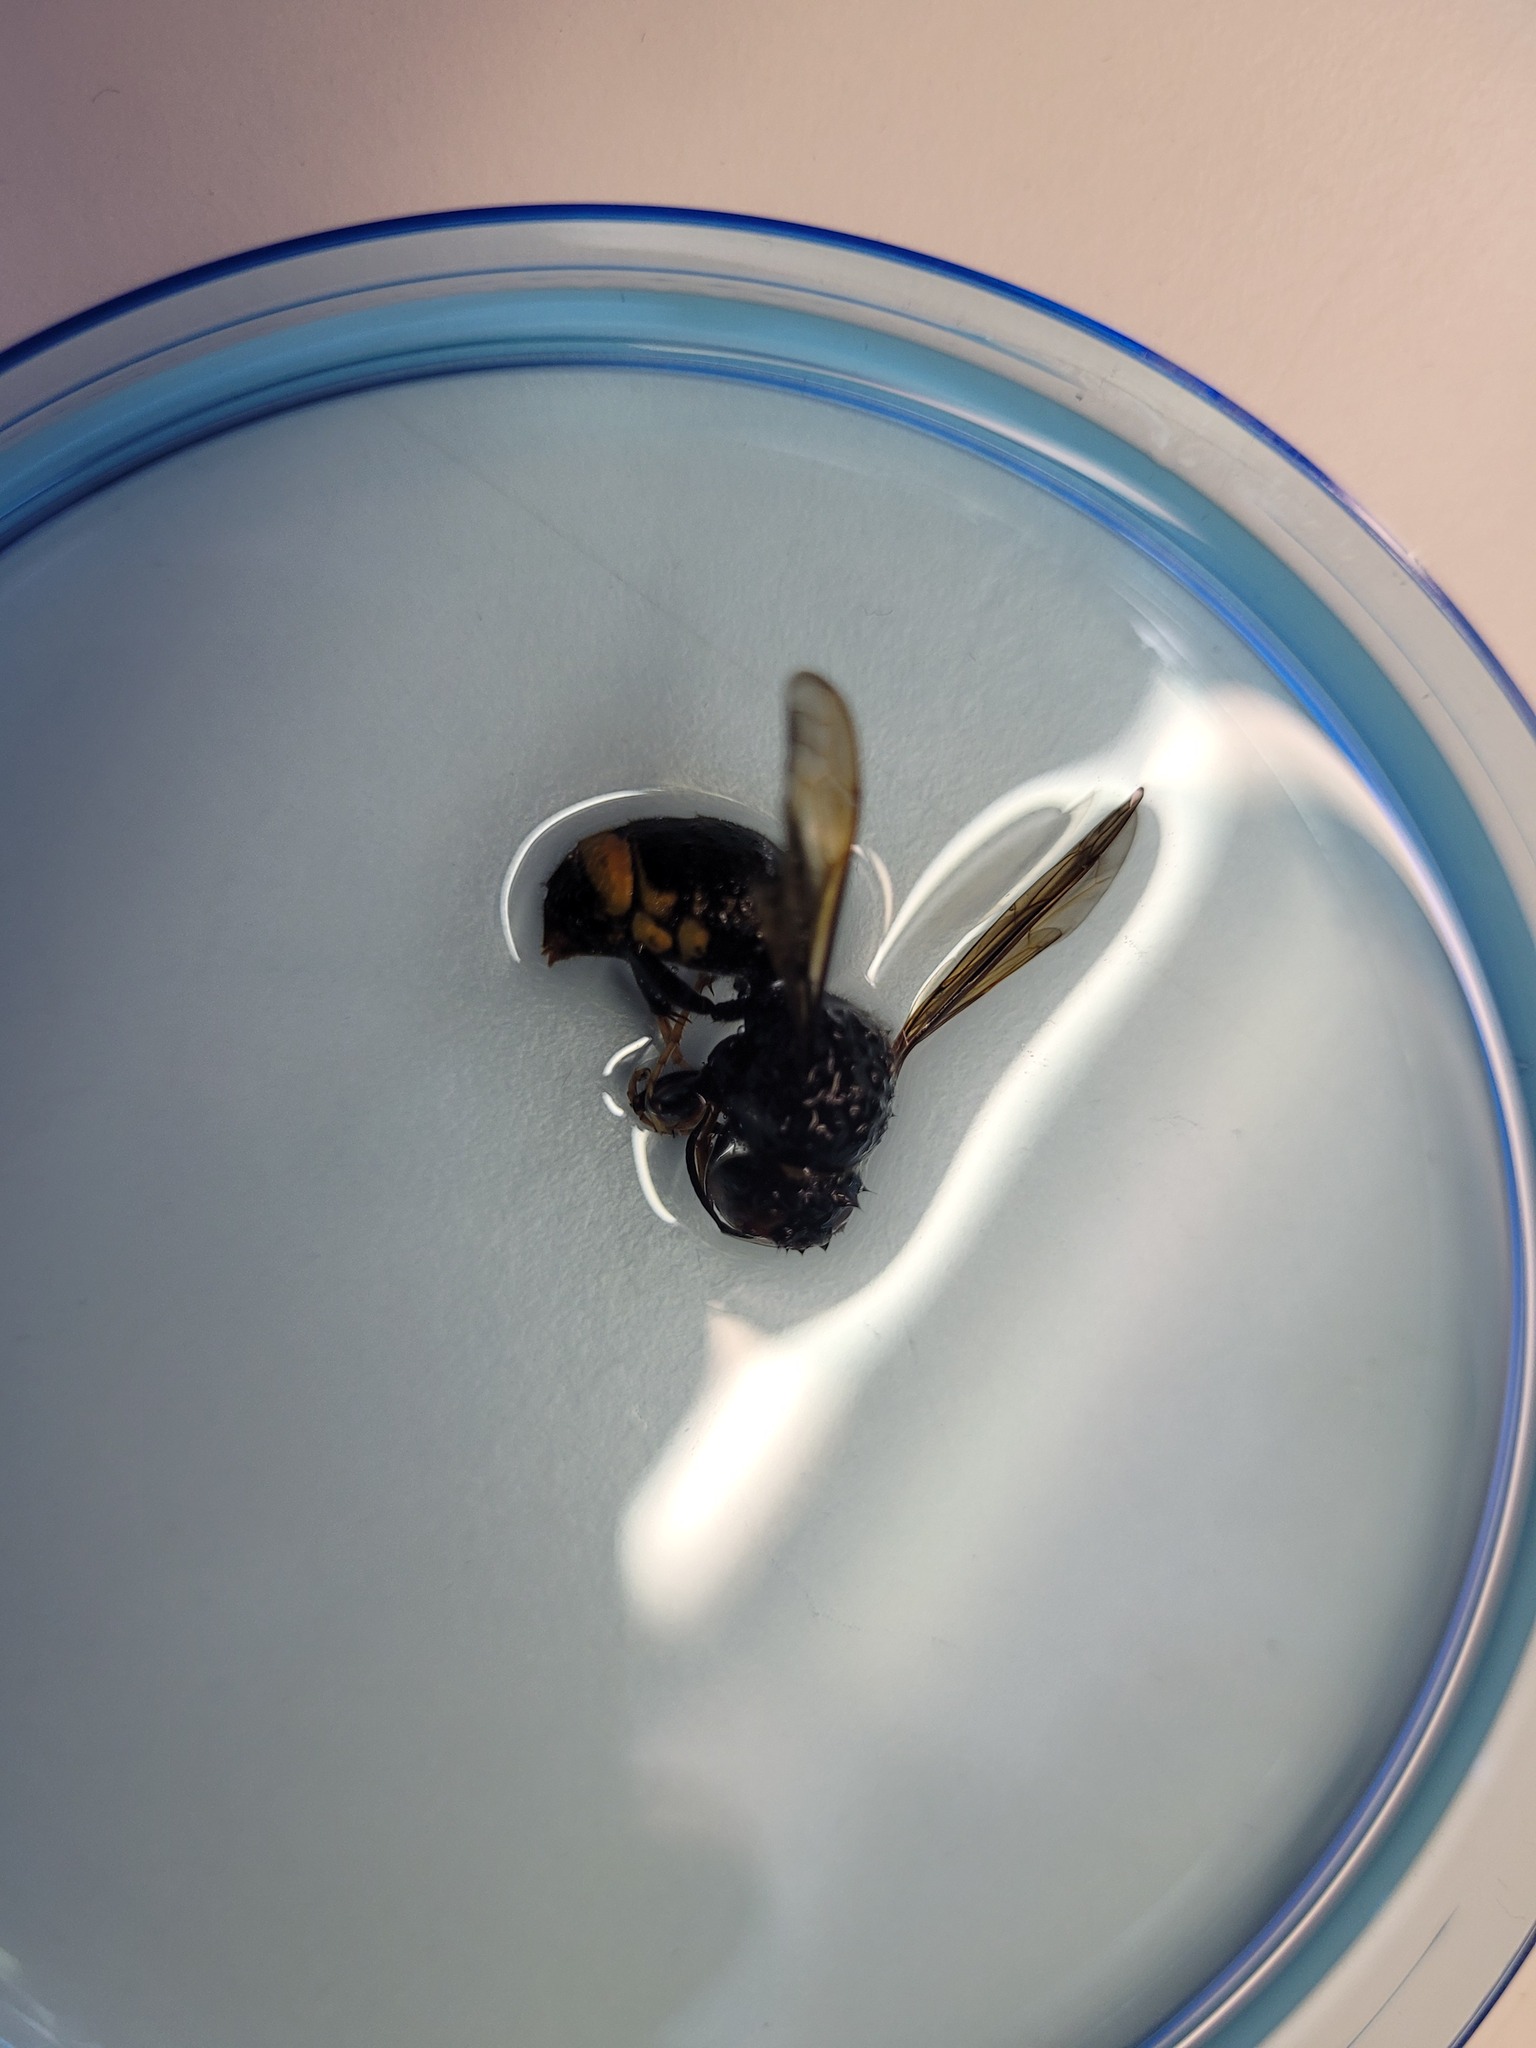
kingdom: Animalia
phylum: Arthropoda
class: Insecta
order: Hymenoptera
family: Vespidae
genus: Vespa
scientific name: Vespa velutina
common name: Asian hornet
